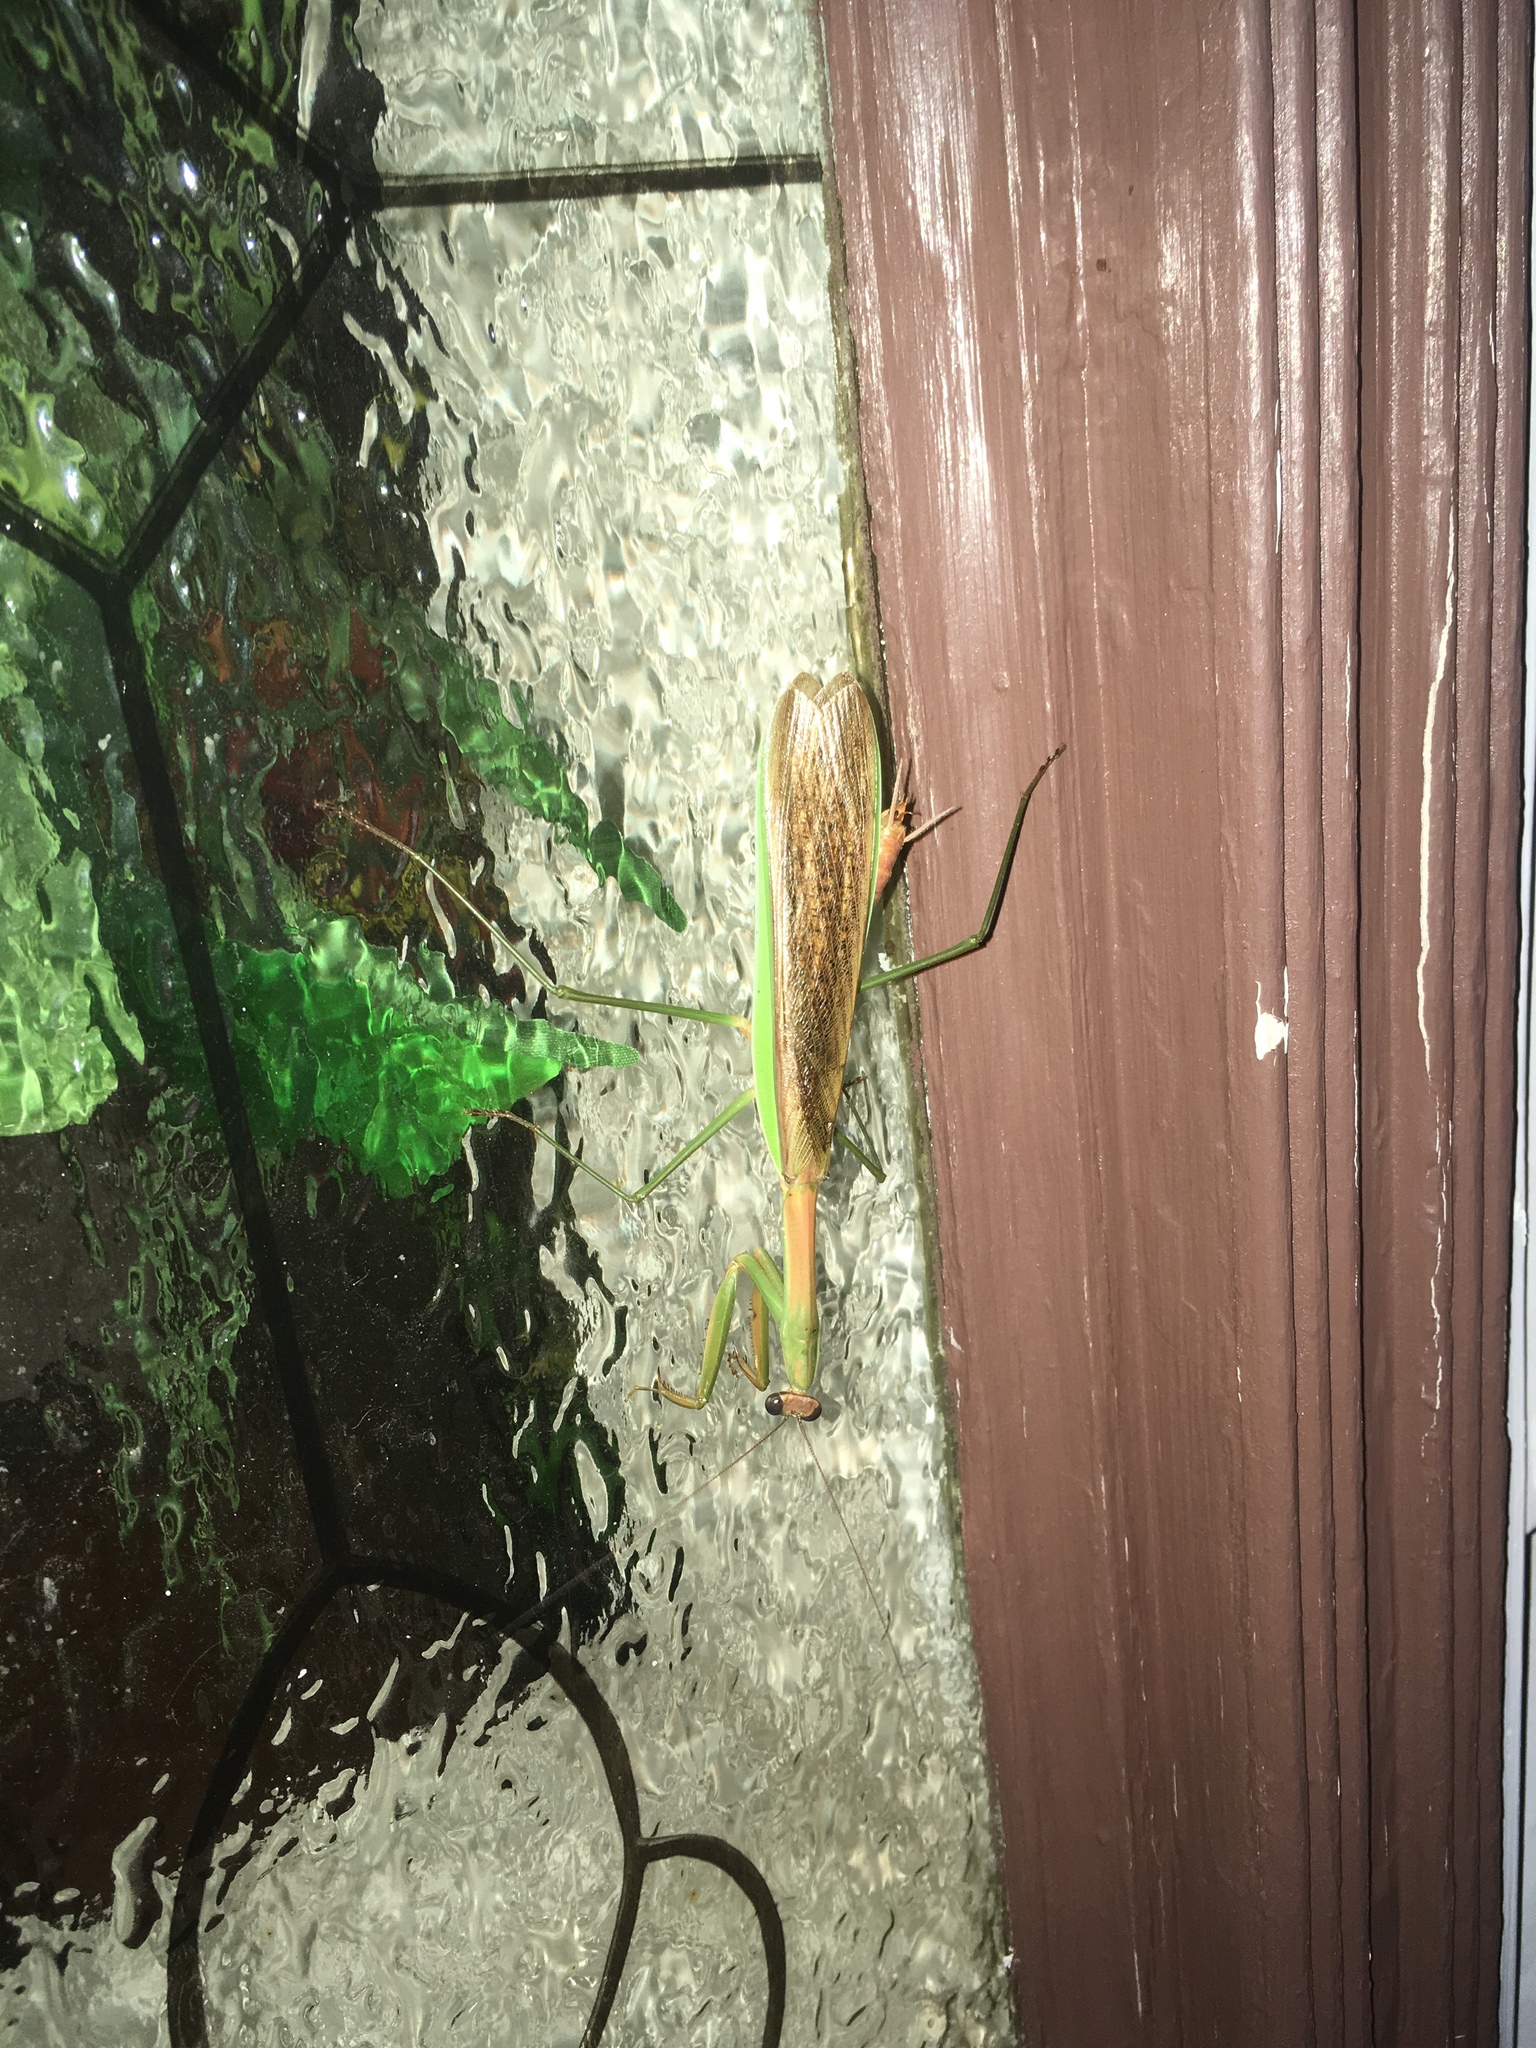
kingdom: Animalia
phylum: Arthropoda
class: Insecta
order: Mantodea
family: Mantidae
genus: Tenodera
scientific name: Tenodera sinensis
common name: Chinese mantis
